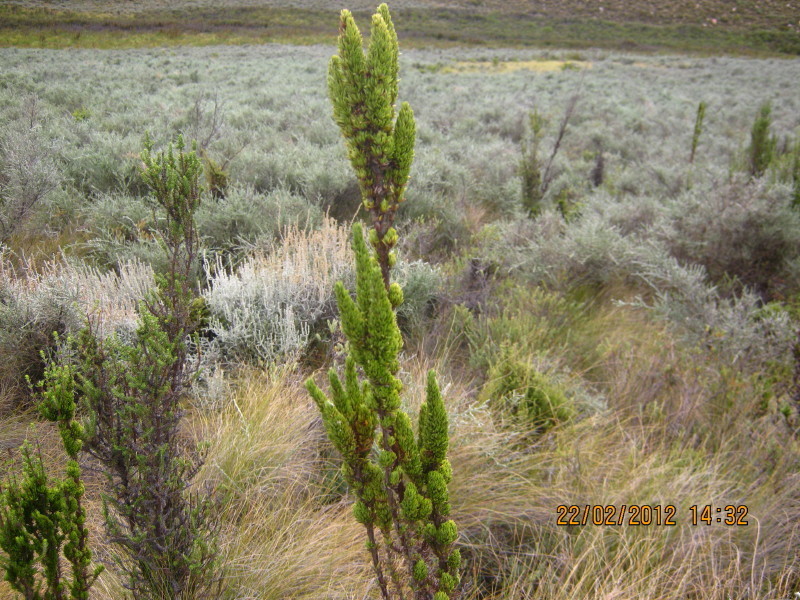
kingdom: Plantae
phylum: Tracheophyta
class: Magnoliopsida
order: Gentianales
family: Rubiaceae
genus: Anthospermum
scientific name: Anthospermum aethiopicum
